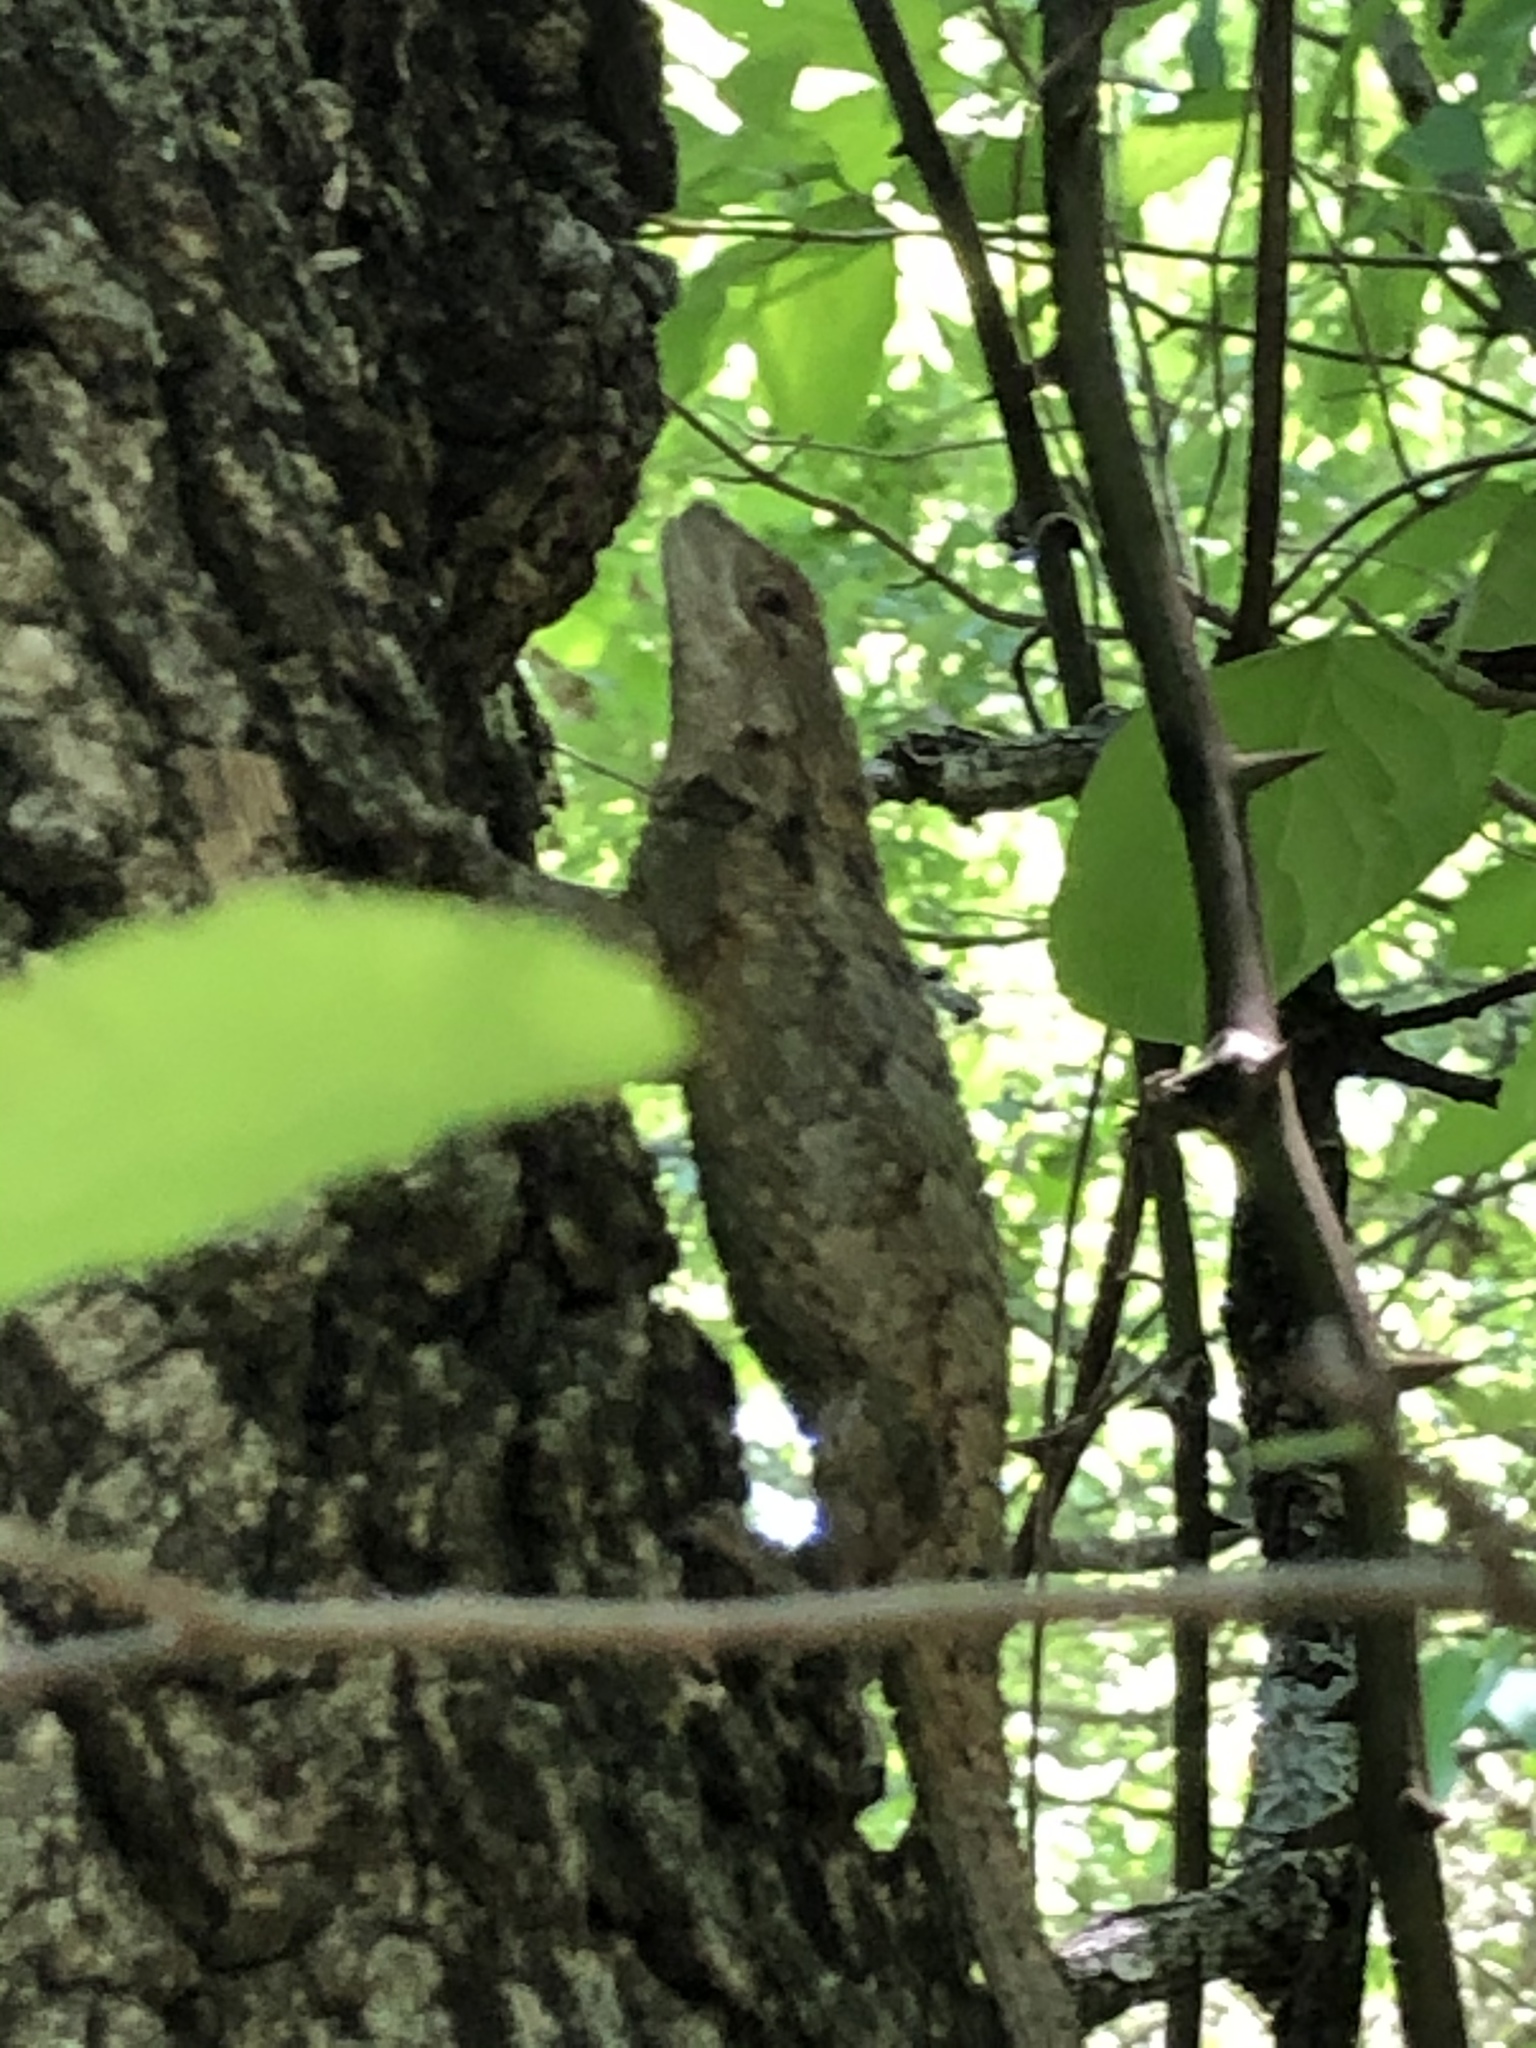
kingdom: Animalia
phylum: Chordata
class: Squamata
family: Phrynosomatidae
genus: Sceloporus
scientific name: Sceloporus olivaceus
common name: Texas spiny lizard
